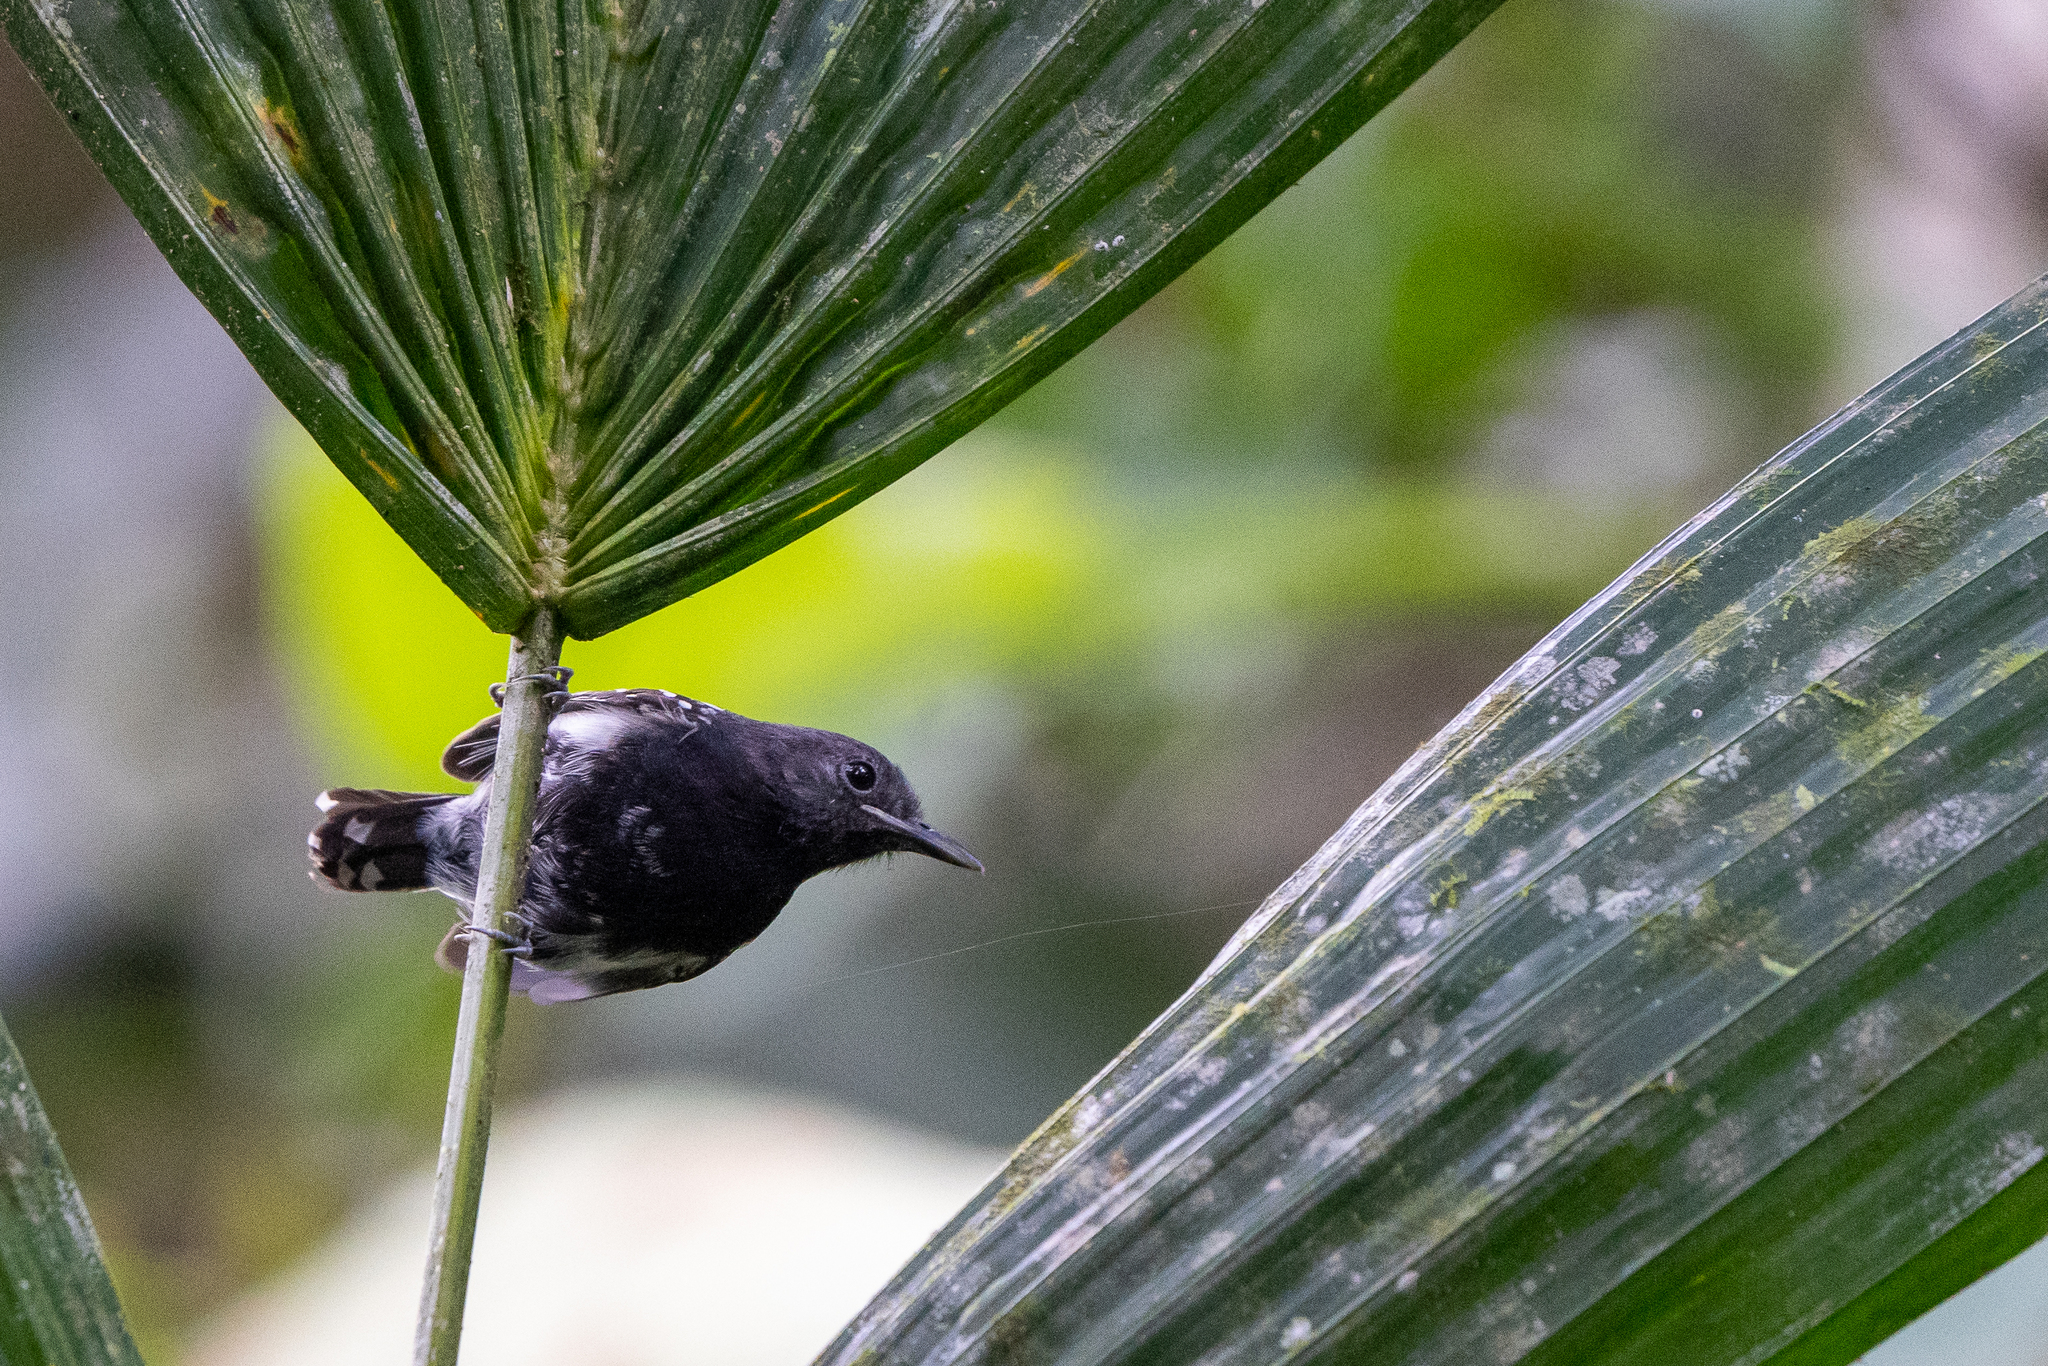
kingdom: Animalia
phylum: Chordata
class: Aves
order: Passeriformes
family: Thamnophilidae
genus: Myrmotherula
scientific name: Myrmotherula axillaris
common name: White-flanked antwren
